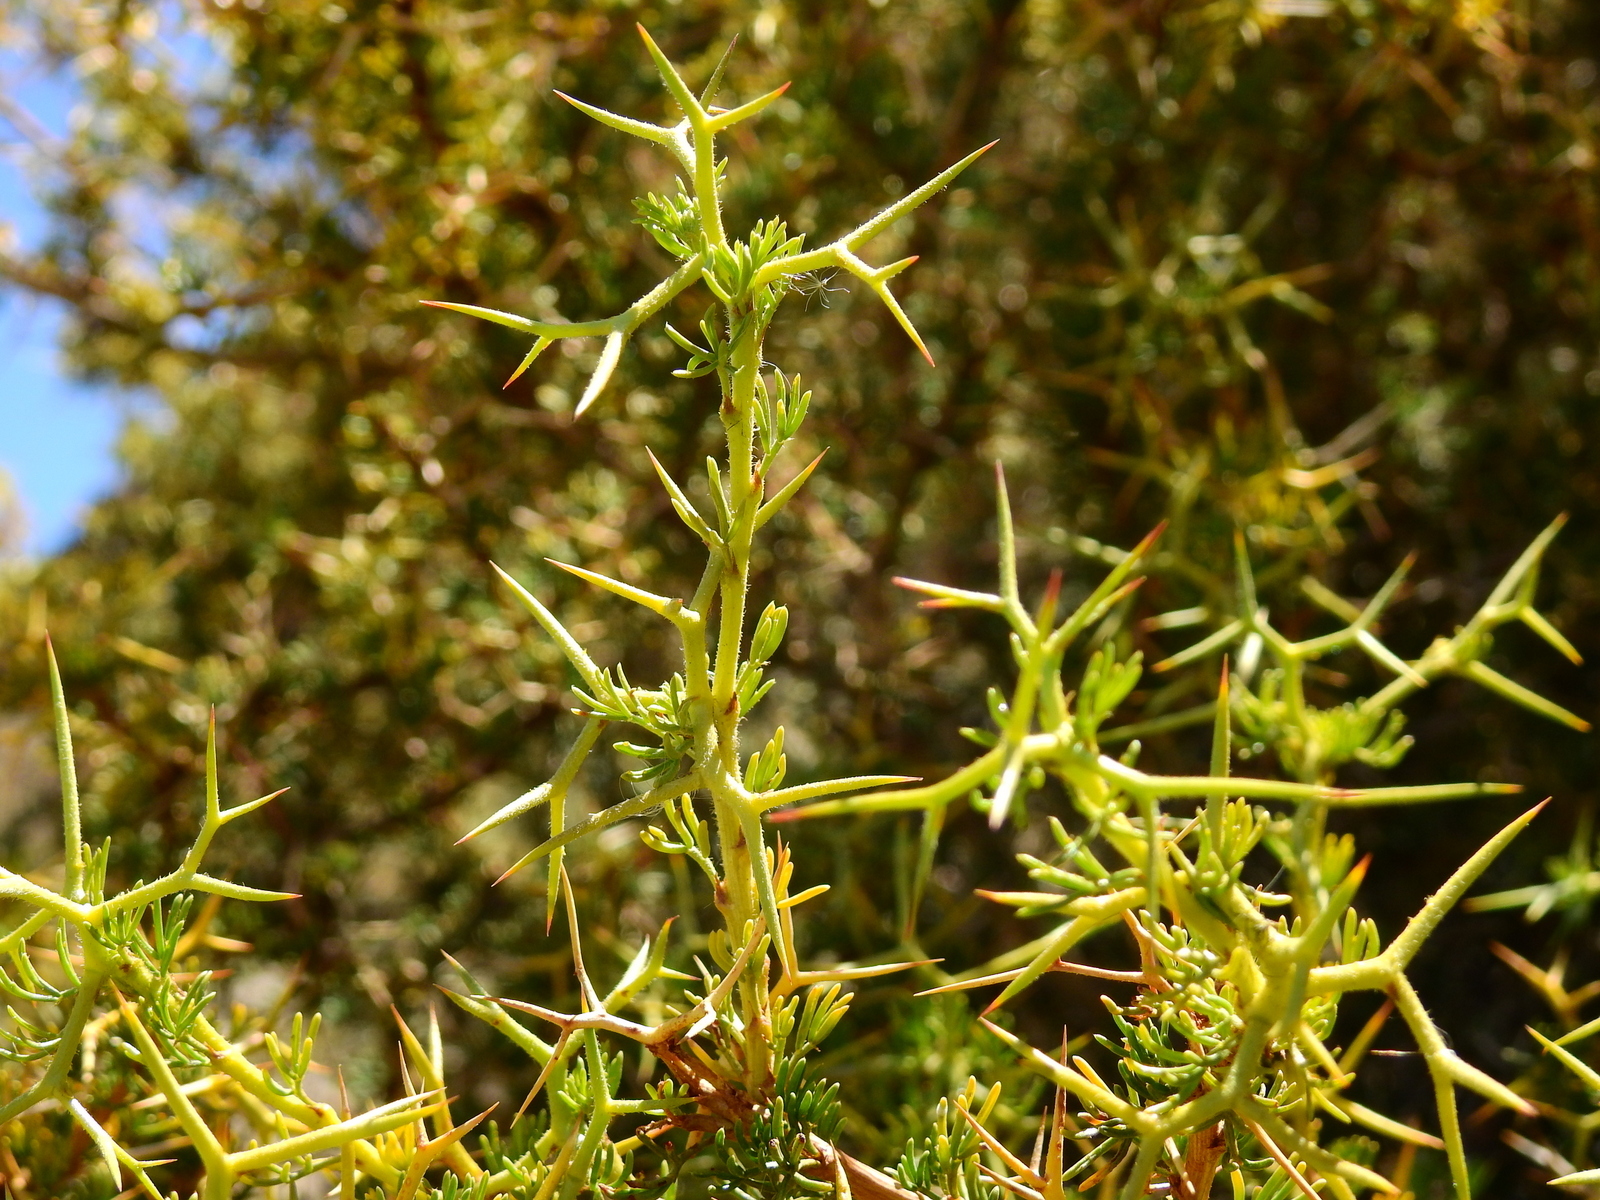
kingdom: Plantae
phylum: Tracheophyta
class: Magnoliopsida
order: Fabales
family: Fabaceae
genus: Adesmia
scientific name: Adesmia pinifolia
